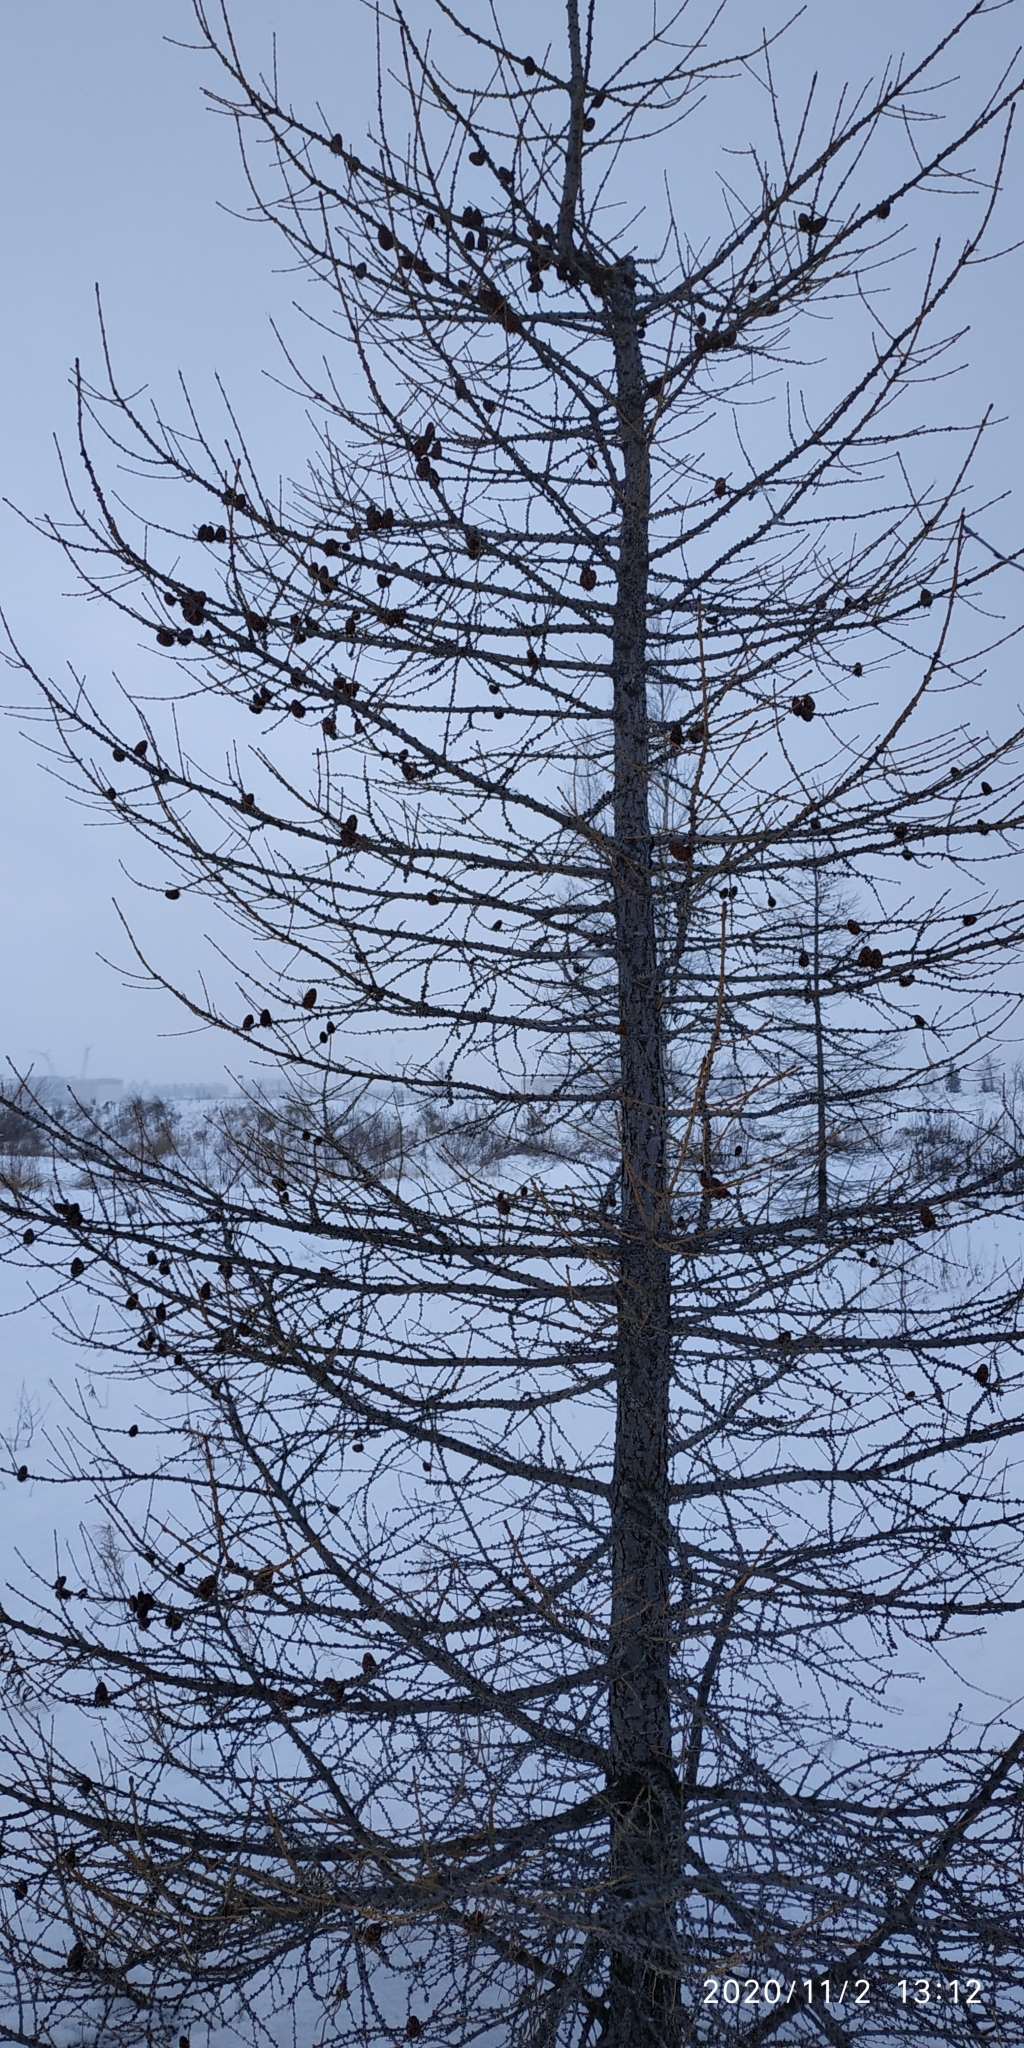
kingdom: Plantae
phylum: Tracheophyta
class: Pinopsida
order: Pinales
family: Pinaceae
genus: Larix
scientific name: Larix sibirica
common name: Siberian larch
